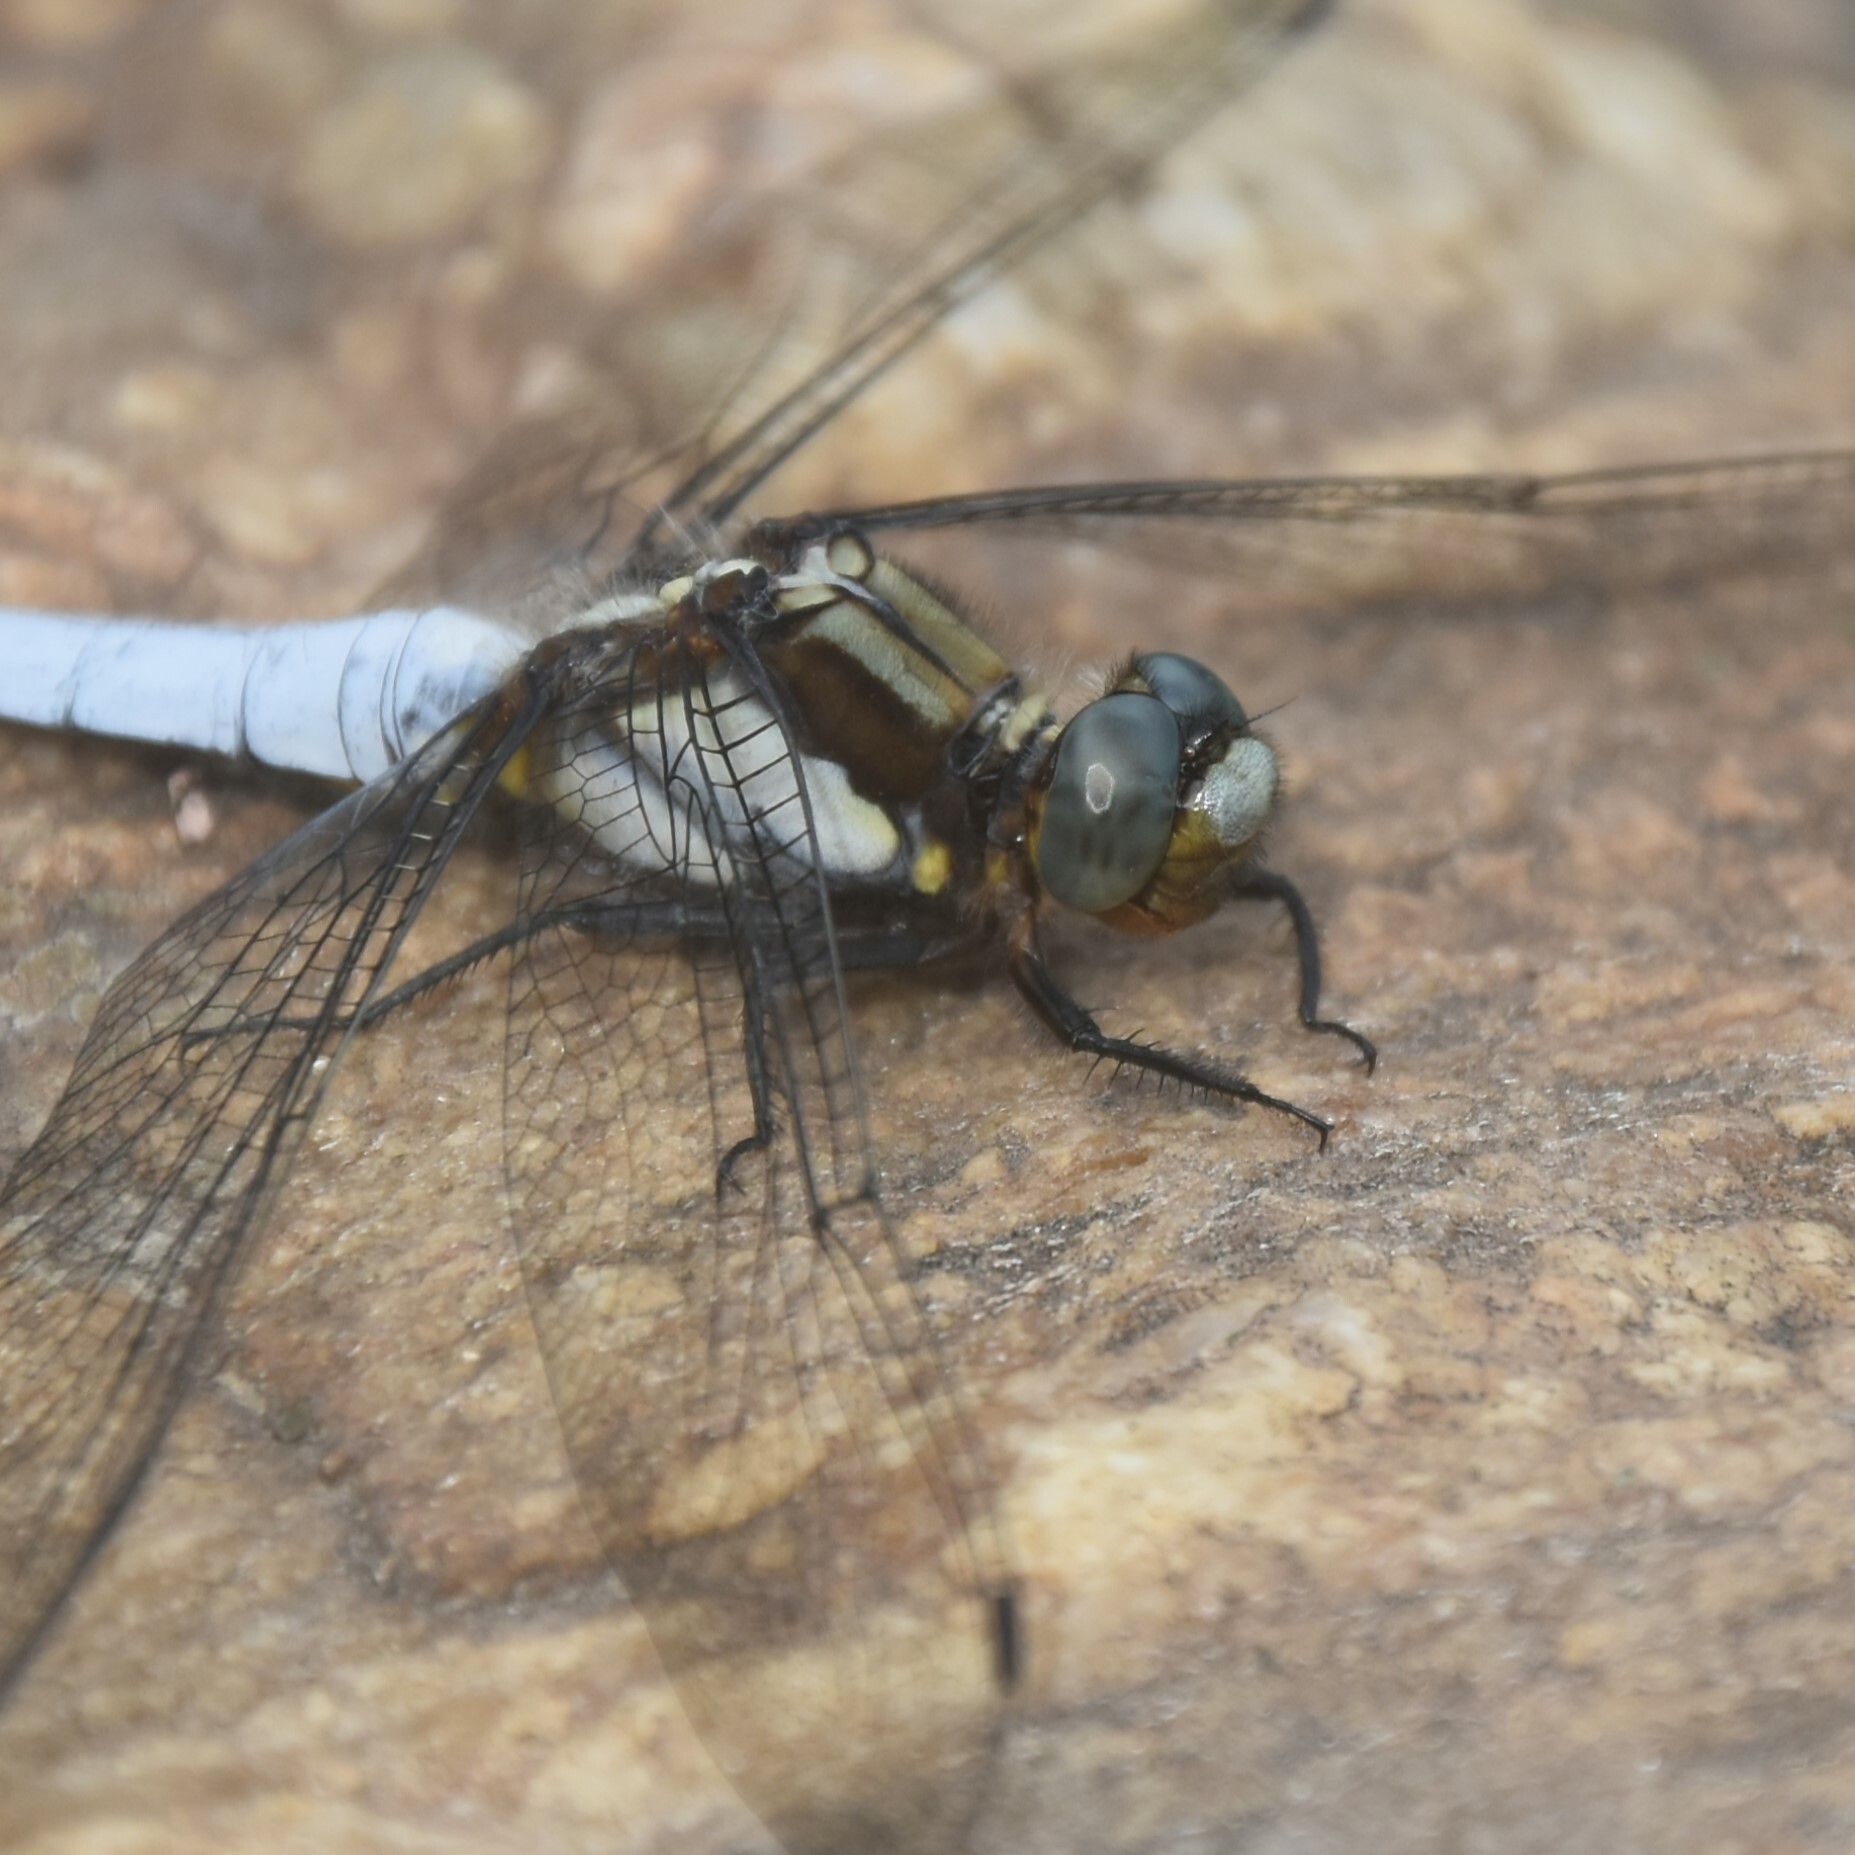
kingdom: Animalia
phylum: Arthropoda
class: Insecta
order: Odonata
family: Libellulidae
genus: Orthetrum
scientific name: Orthetrum internum
